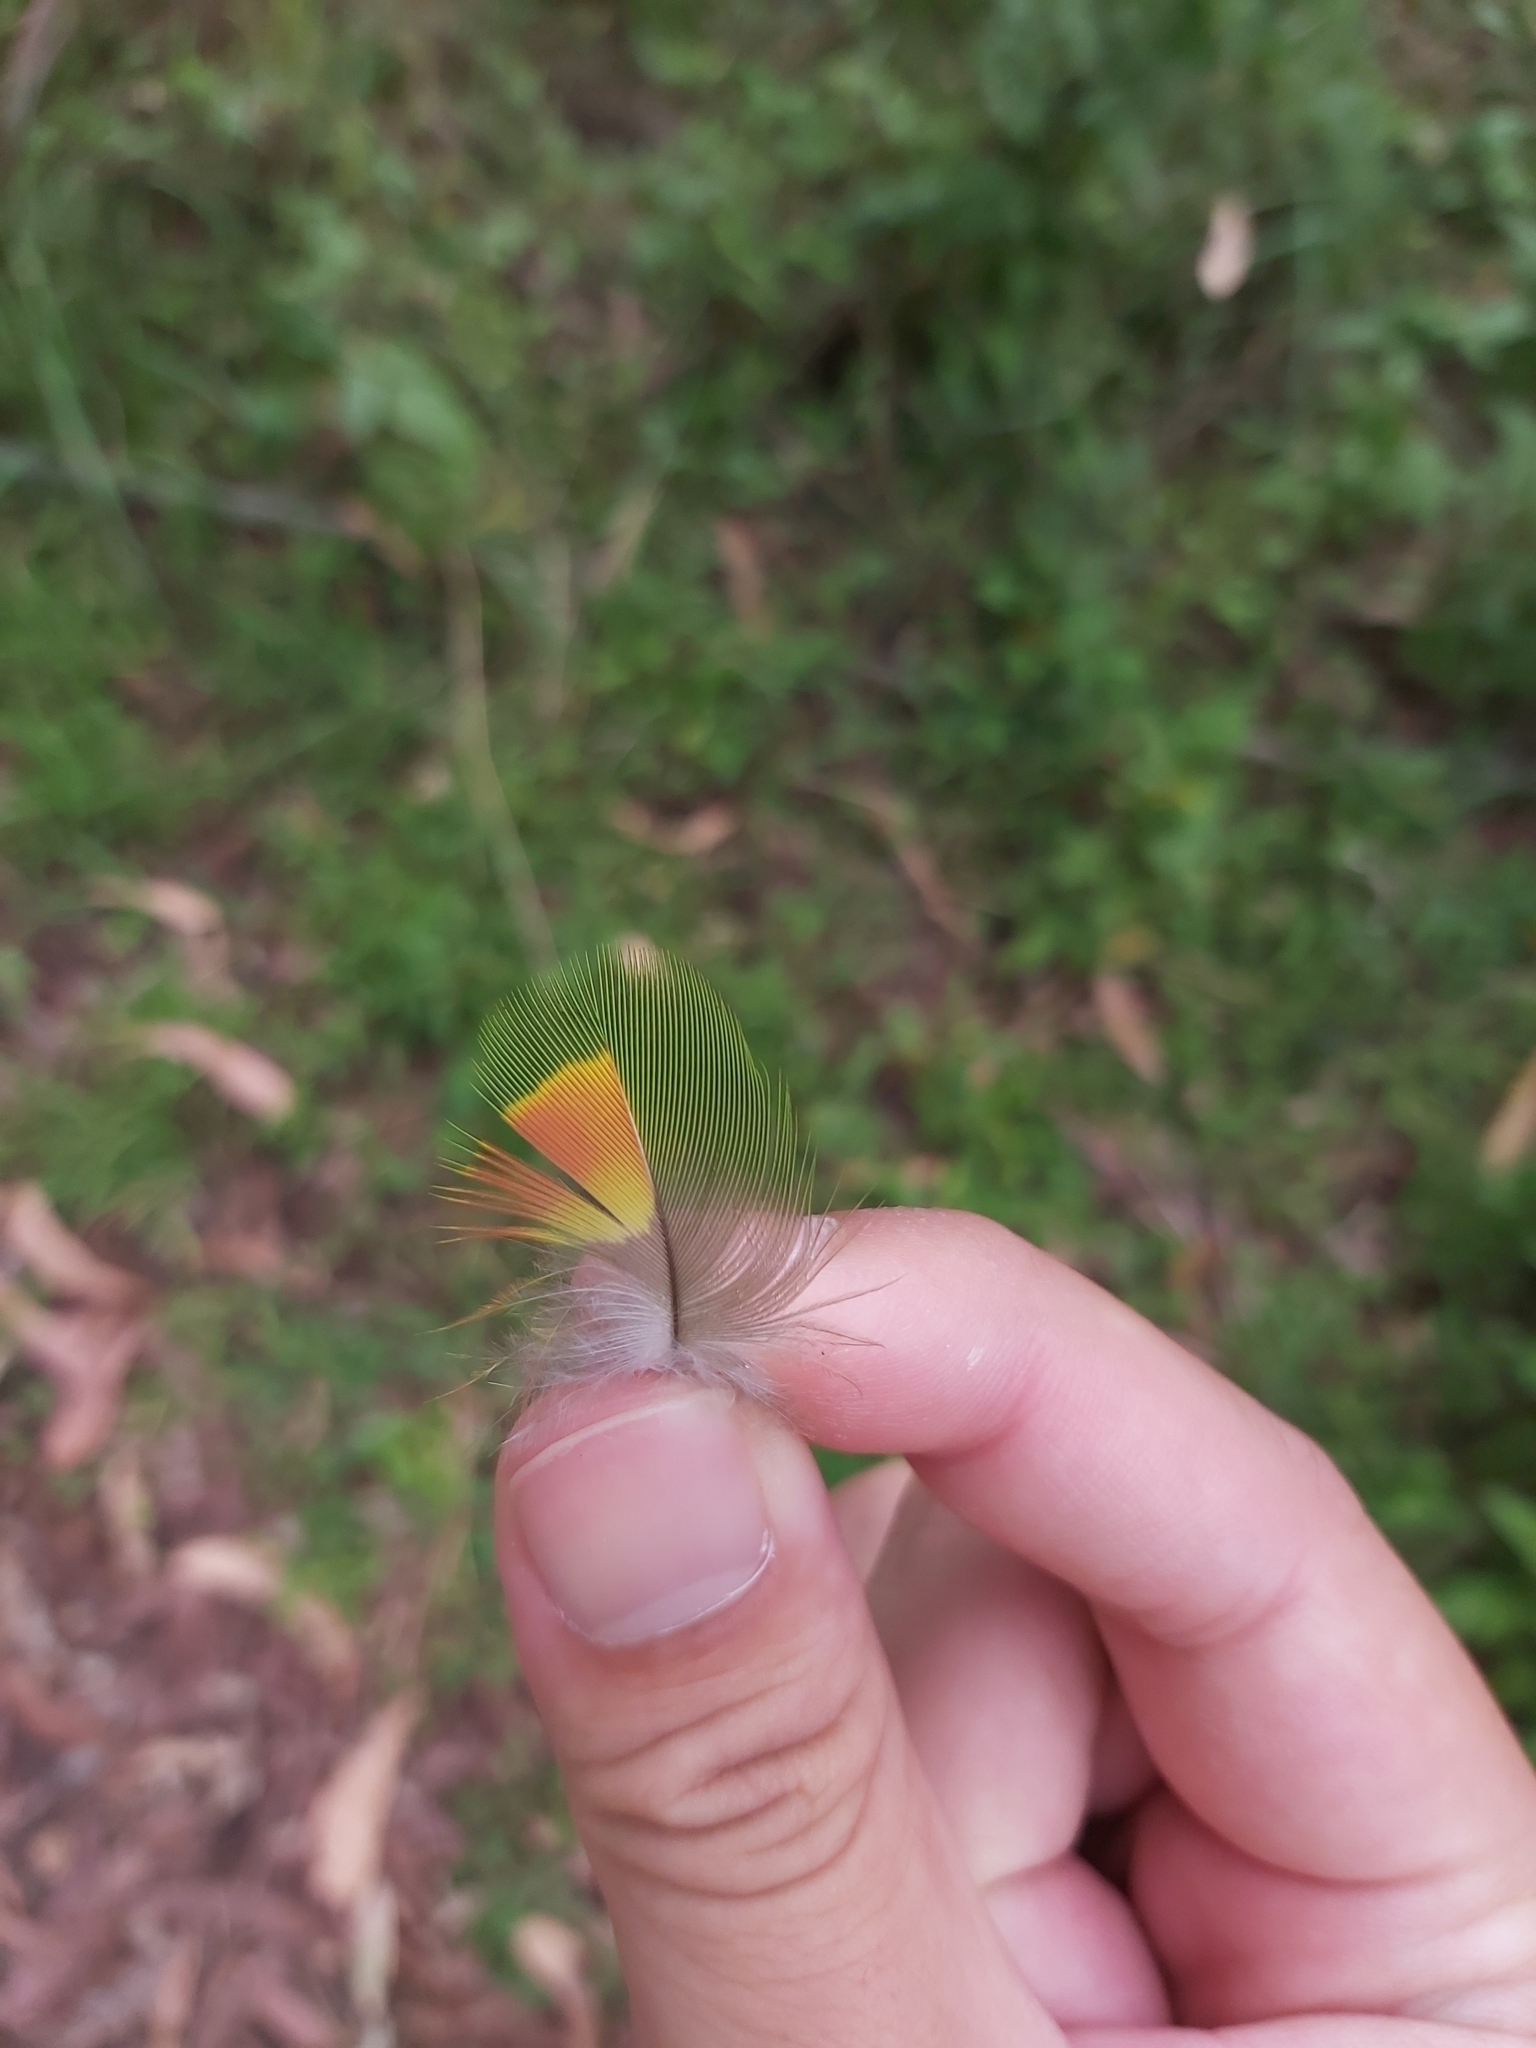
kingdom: Animalia
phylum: Chordata
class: Aves
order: Psittaciformes
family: Psittacidae
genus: Trichoglossus
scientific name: Trichoglossus haematodus
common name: Coconut lorikeet
